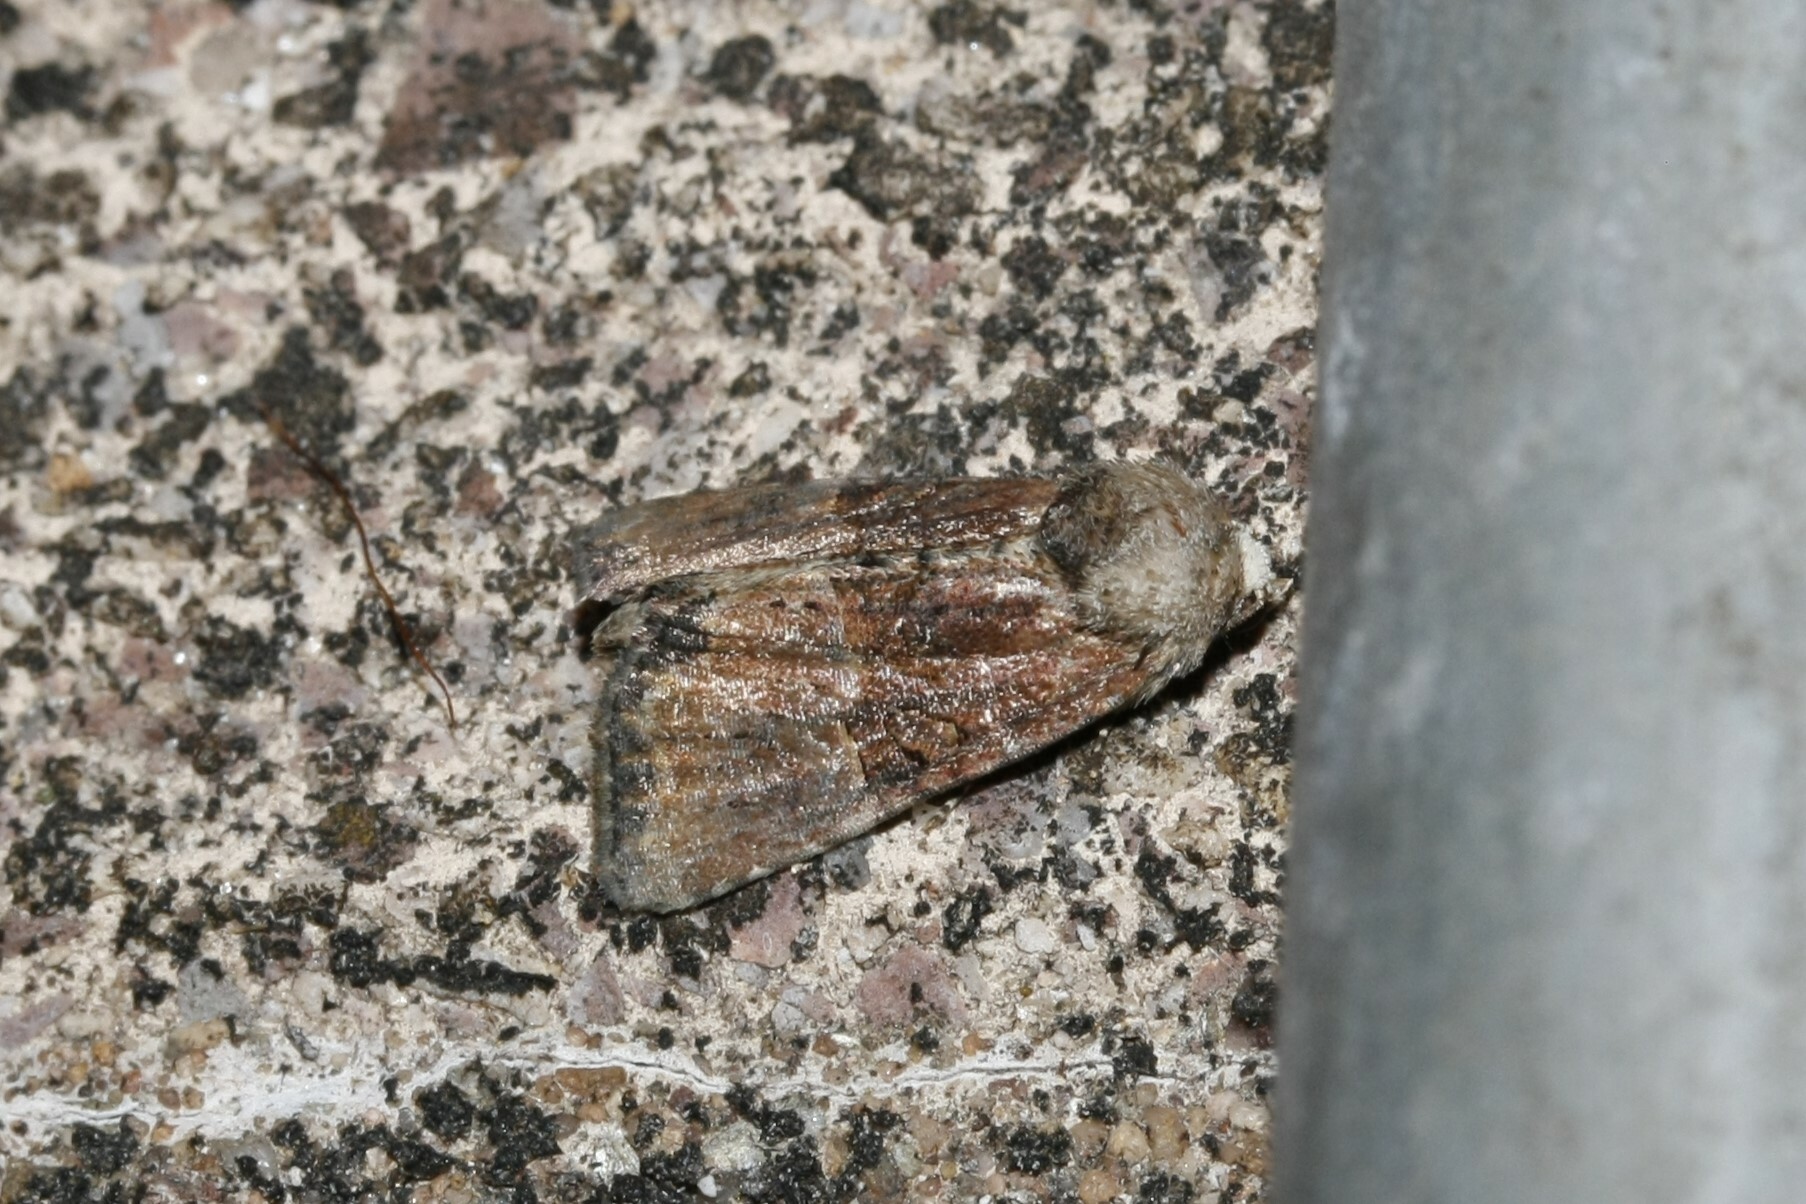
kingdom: Animalia
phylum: Arthropoda
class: Insecta
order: Lepidoptera
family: Noctuidae
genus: Mesoligia
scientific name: Mesoligia furuncula
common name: Cloaked minor
